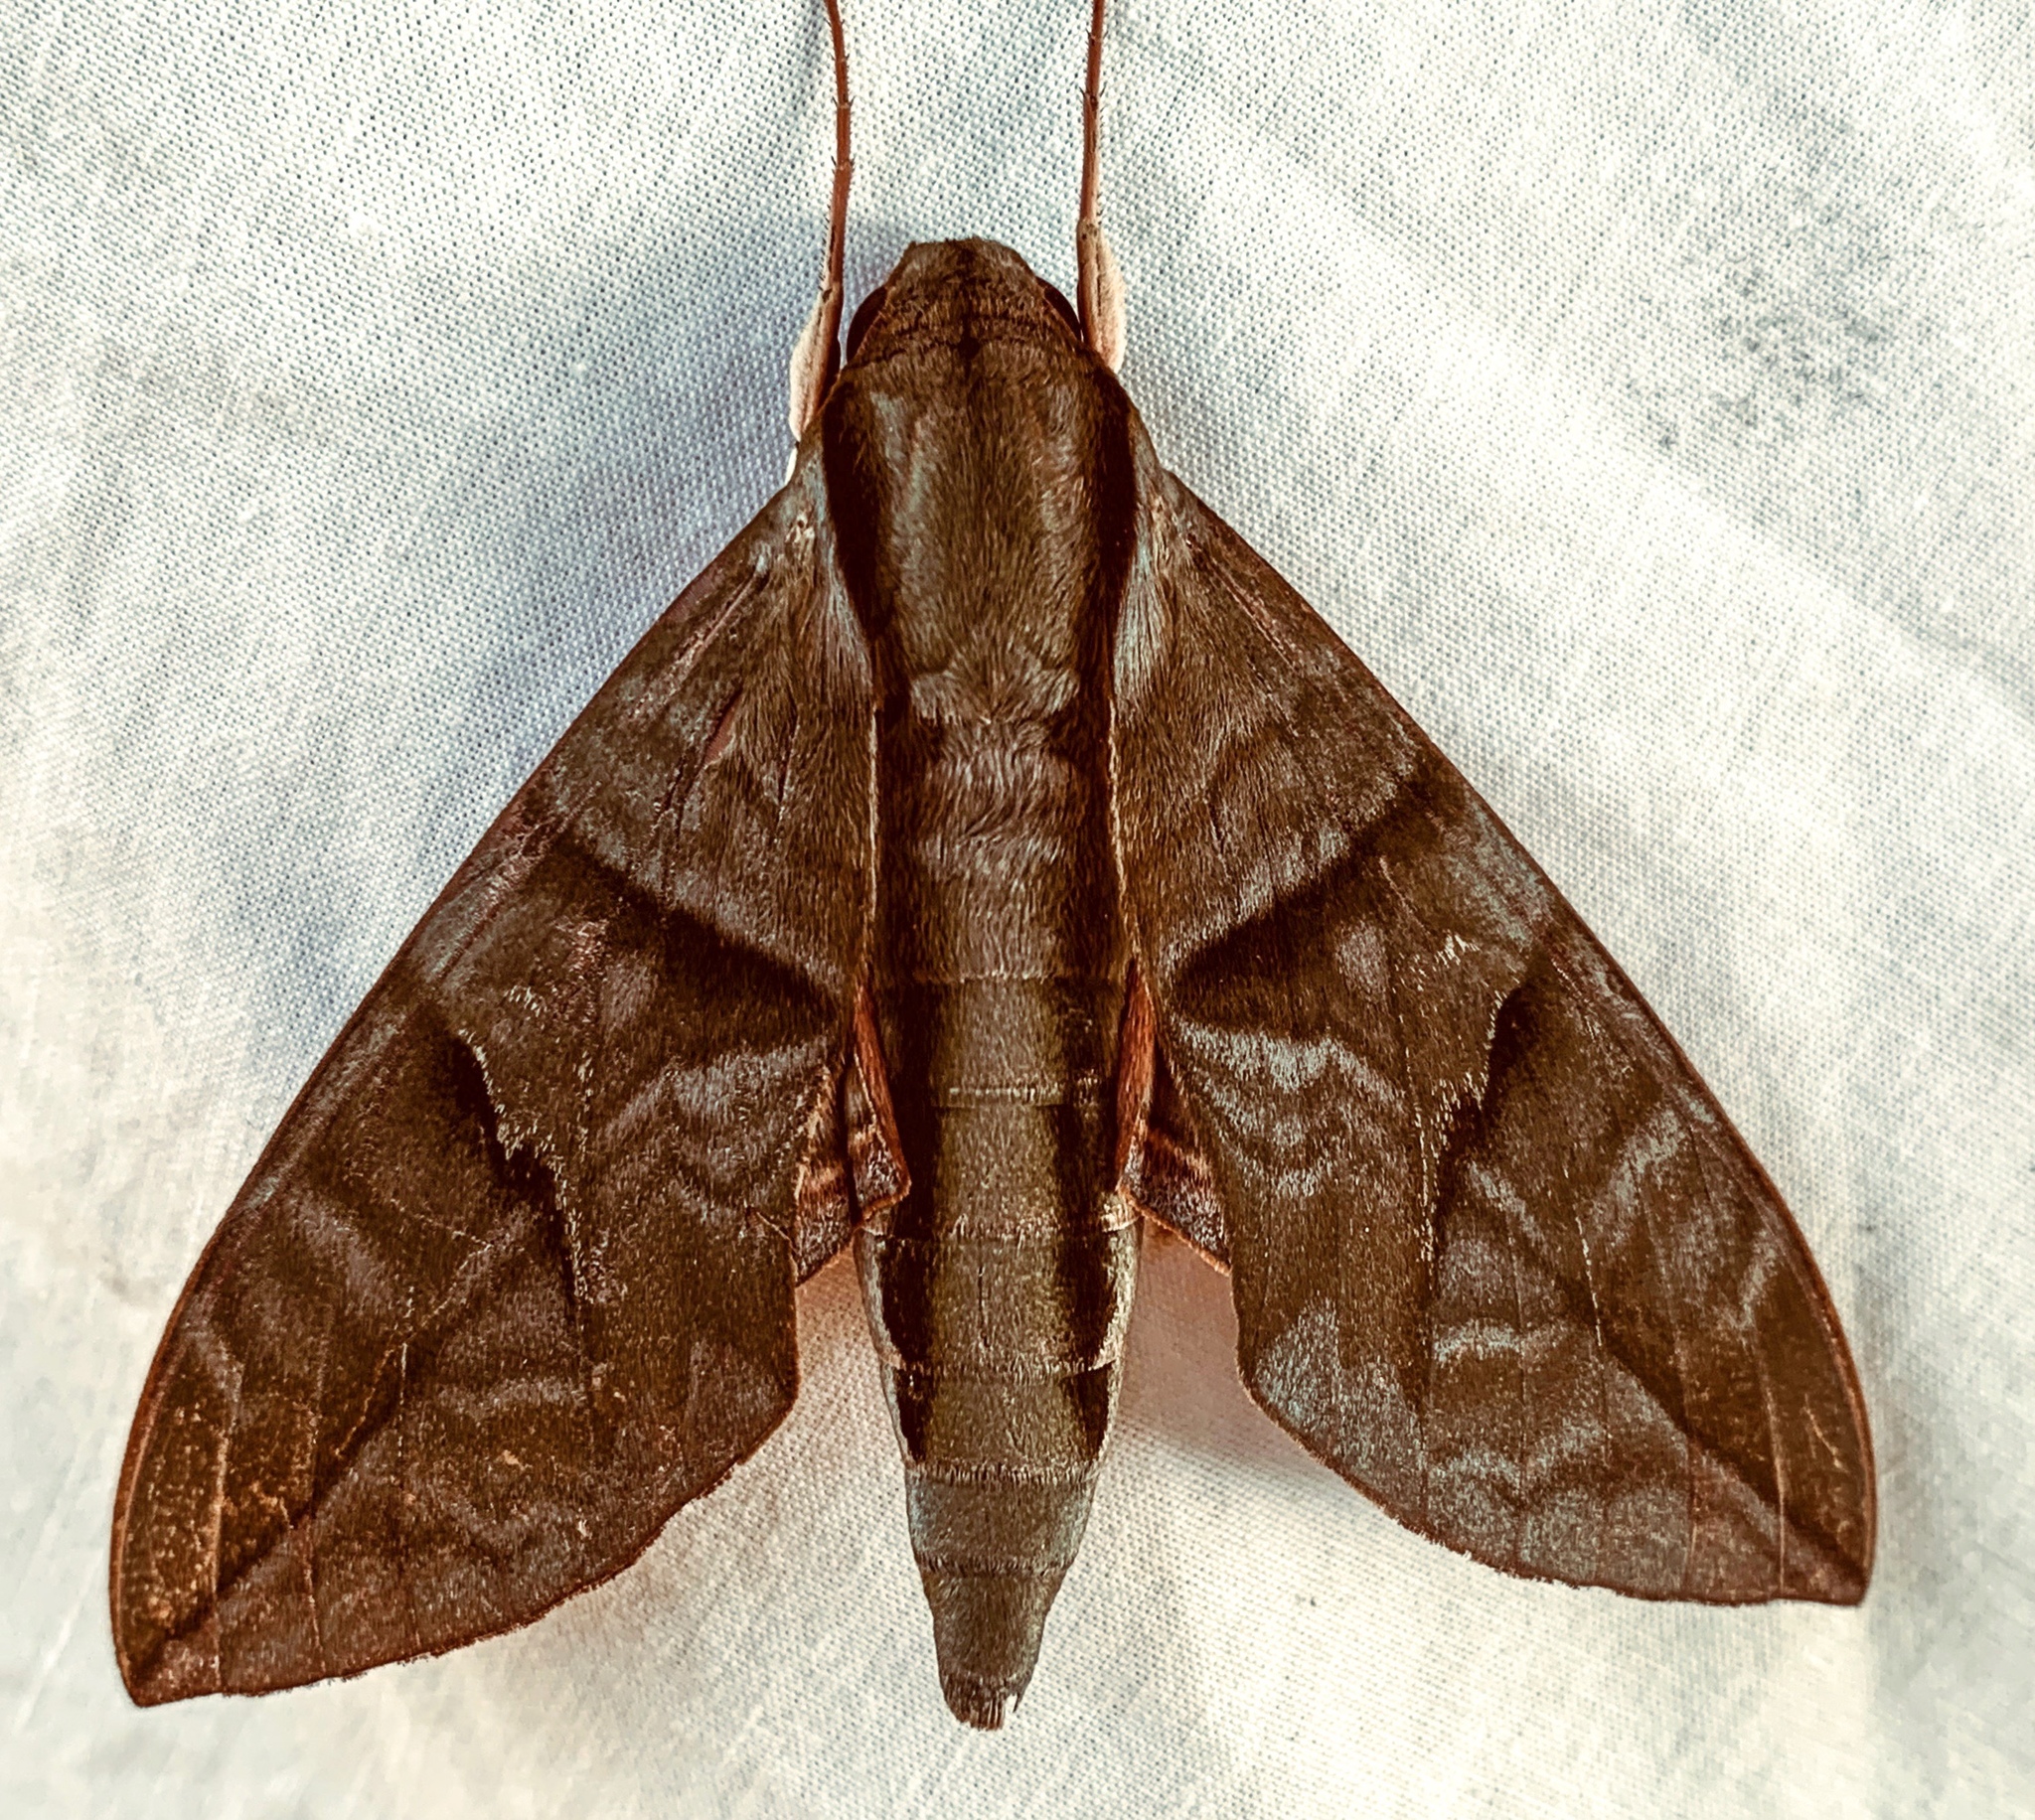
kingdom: Animalia
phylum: Arthropoda
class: Insecta
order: Lepidoptera
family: Sphingidae
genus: Eumorpha
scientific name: Eumorpha phorbas
